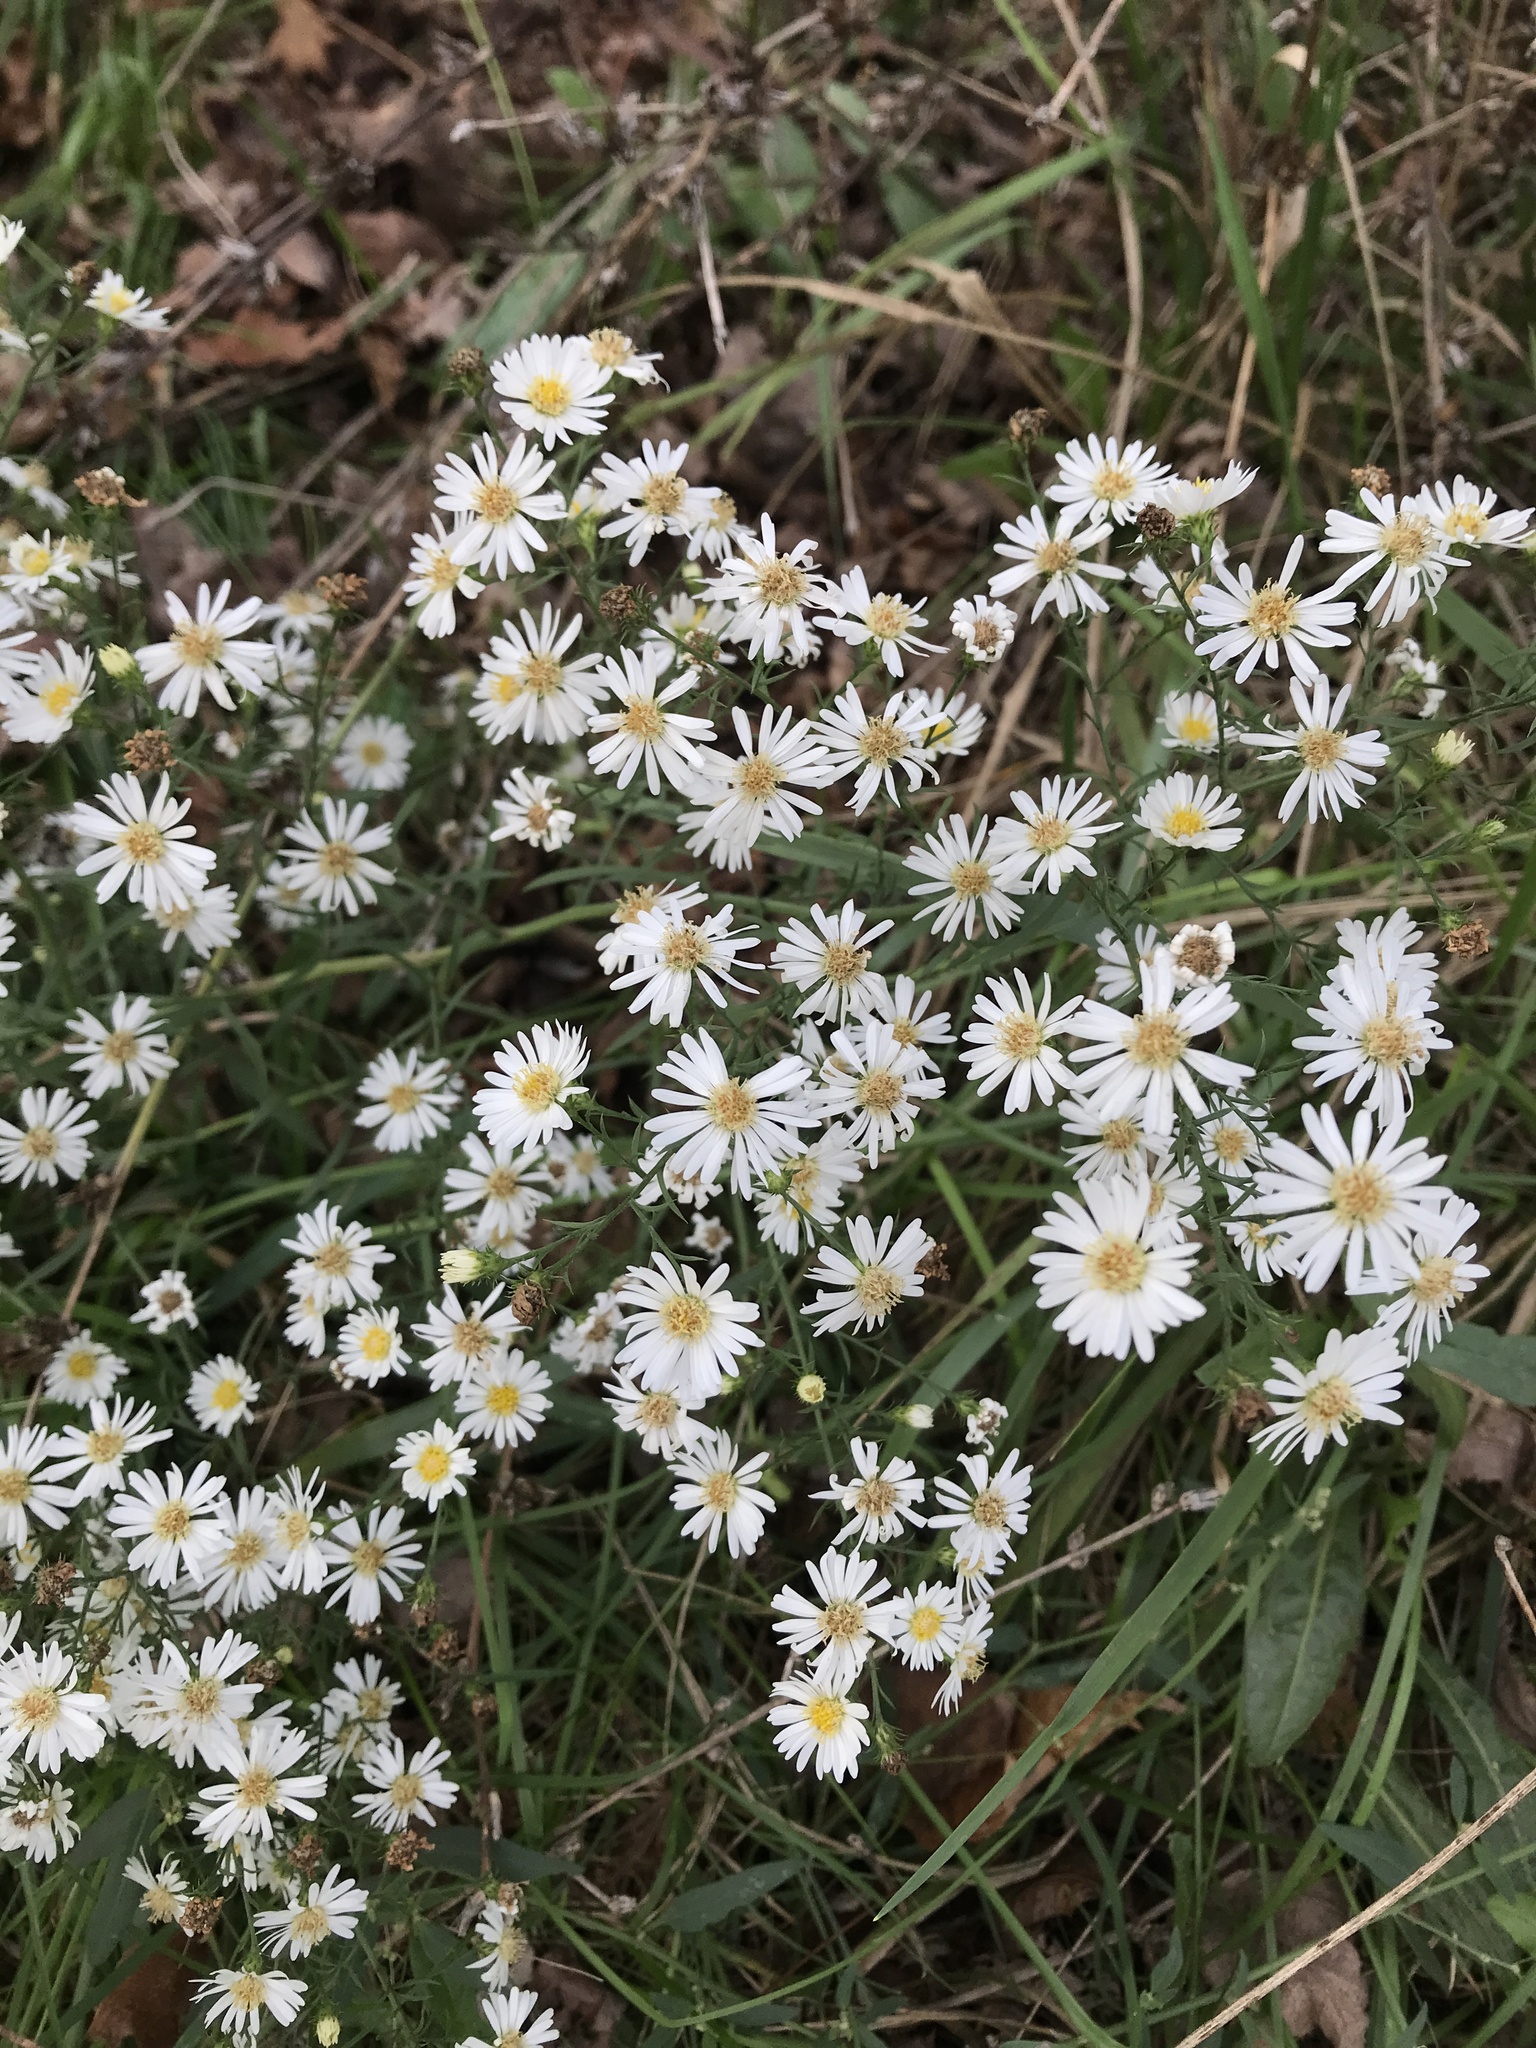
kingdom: Plantae
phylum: Tracheophyta
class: Magnoliopsida
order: Asterales
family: Asteraceae
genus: Symphyotrichum
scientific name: Symphyotrichum
